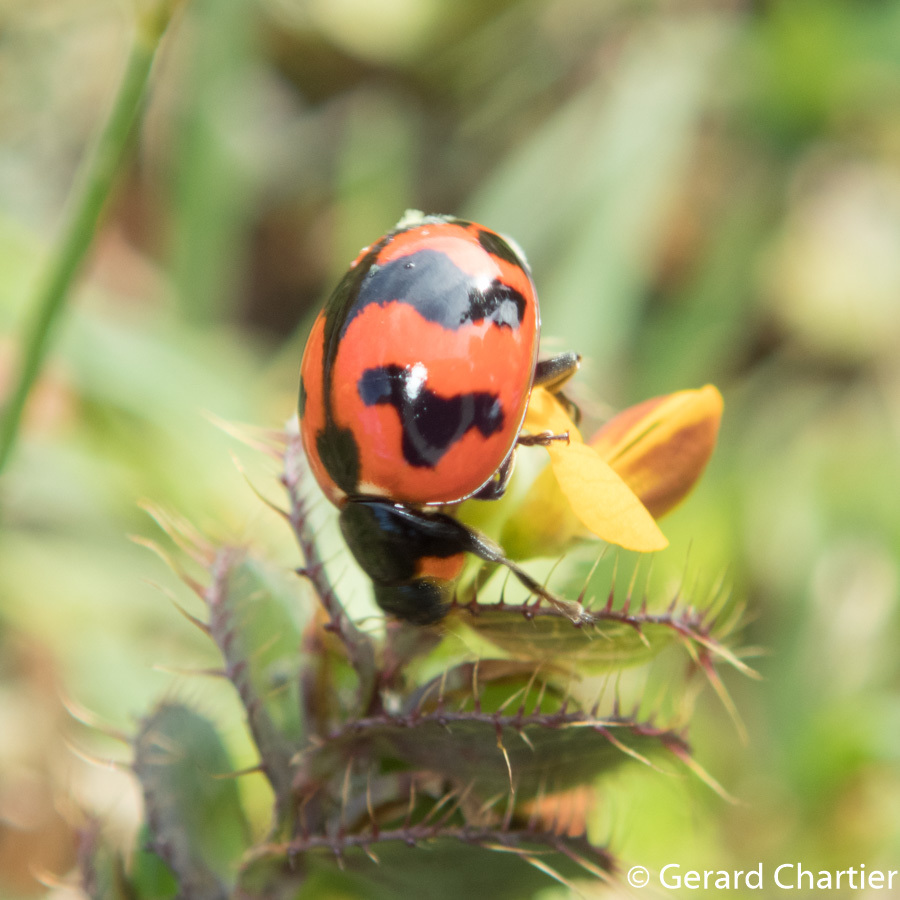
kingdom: Animalia
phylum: Arthropoda
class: Insecta
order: Coleoptera
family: Coccinellidae
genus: Coccinella
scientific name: Coccinella transversalis
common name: Transverse lady beetle
